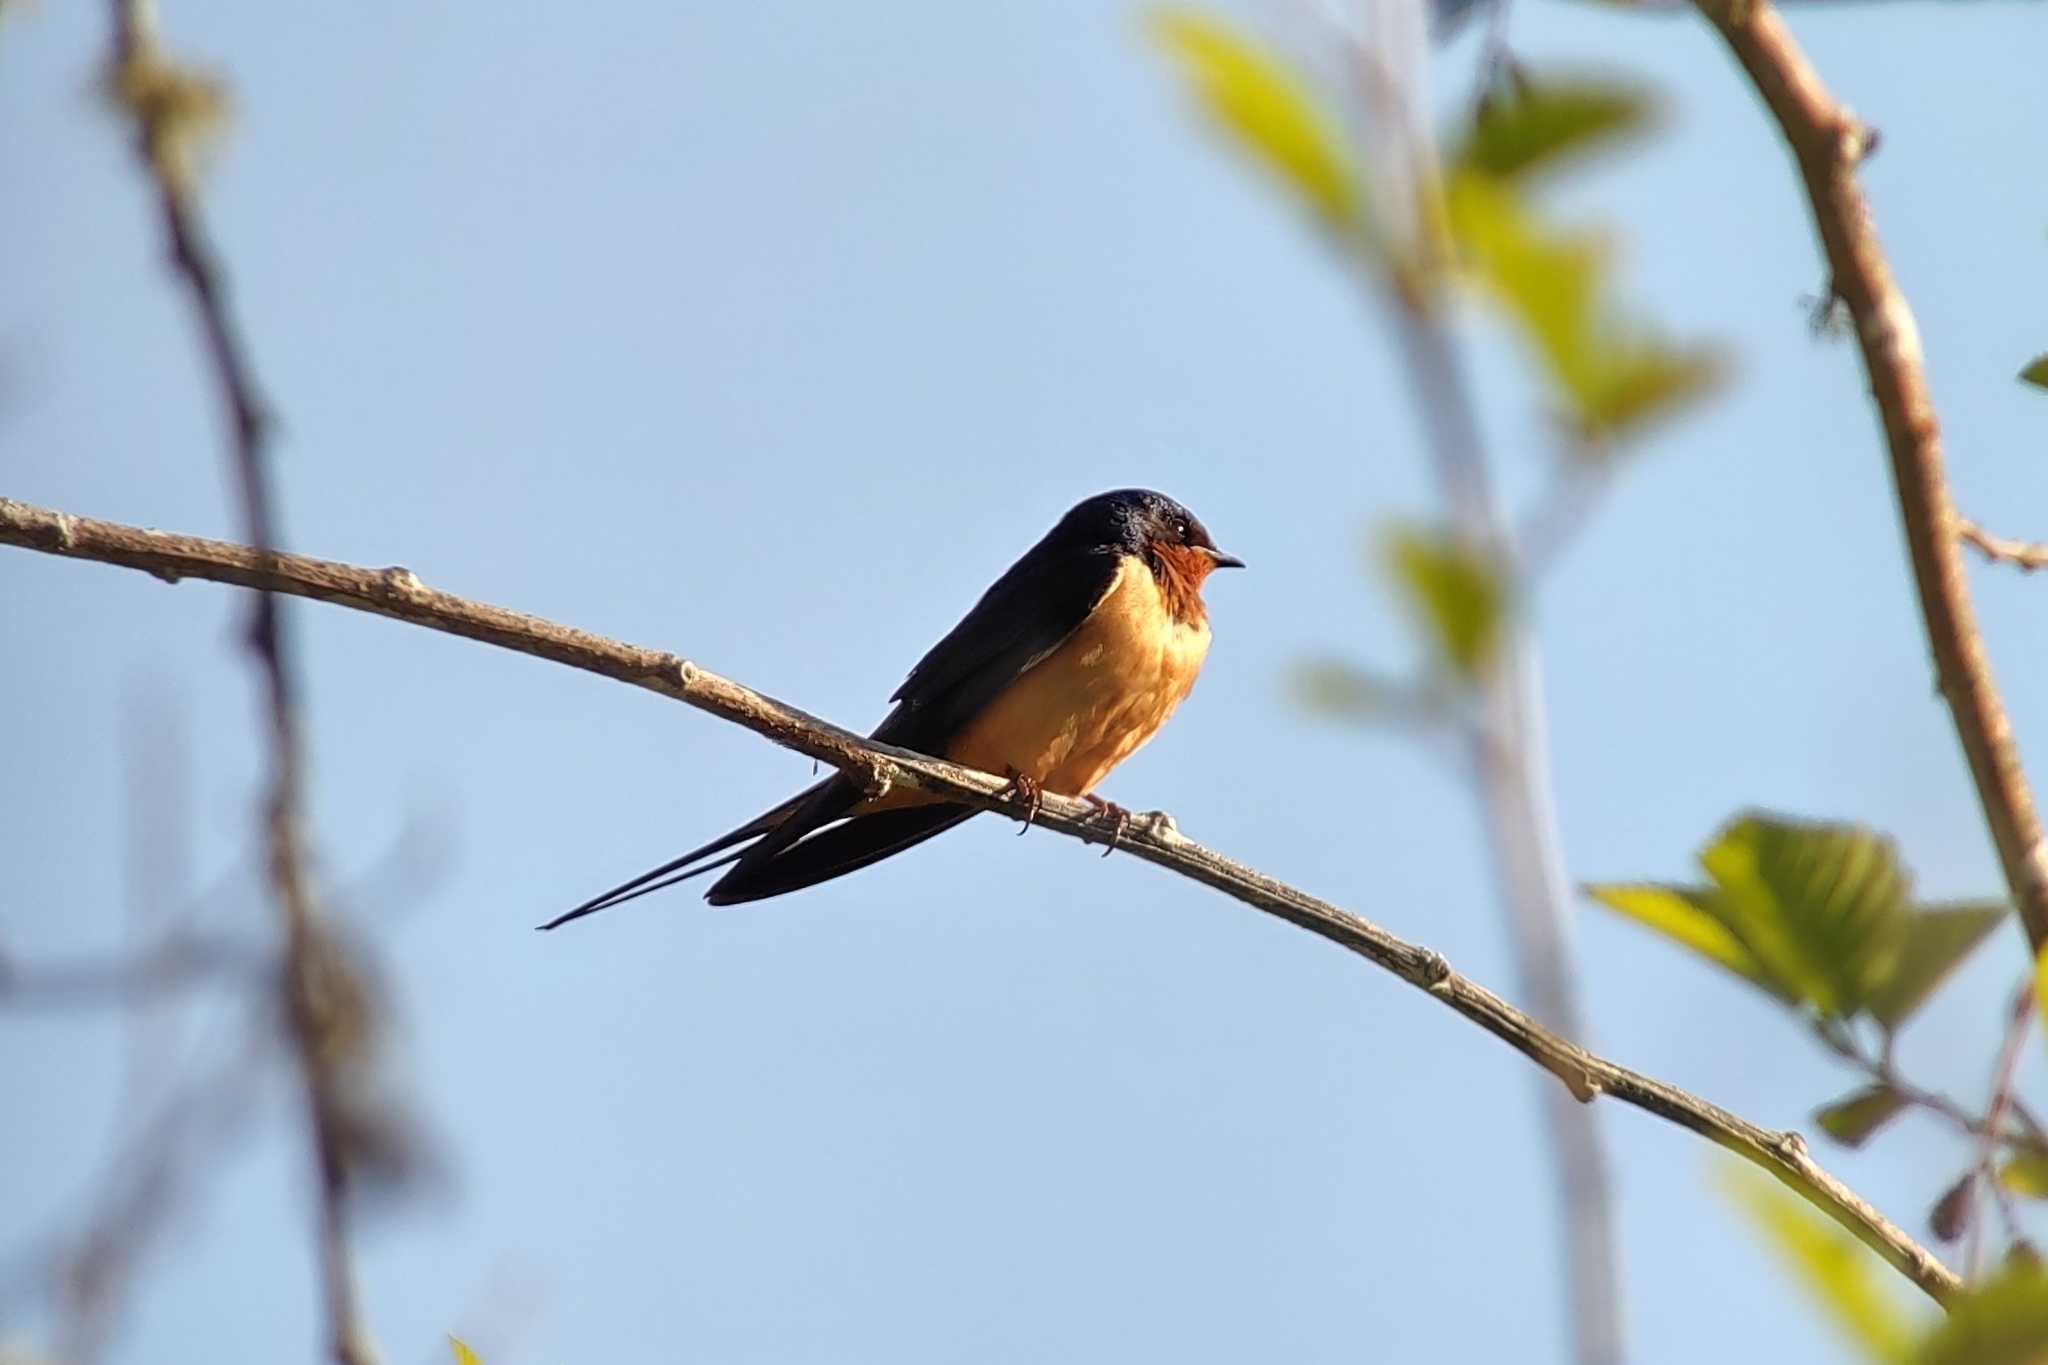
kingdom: Animalia
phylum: Chordata
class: Aves
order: Passeriformes
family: Hirundinidae
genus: Hirundo
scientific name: Hirundo rustica
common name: Barn swallow
